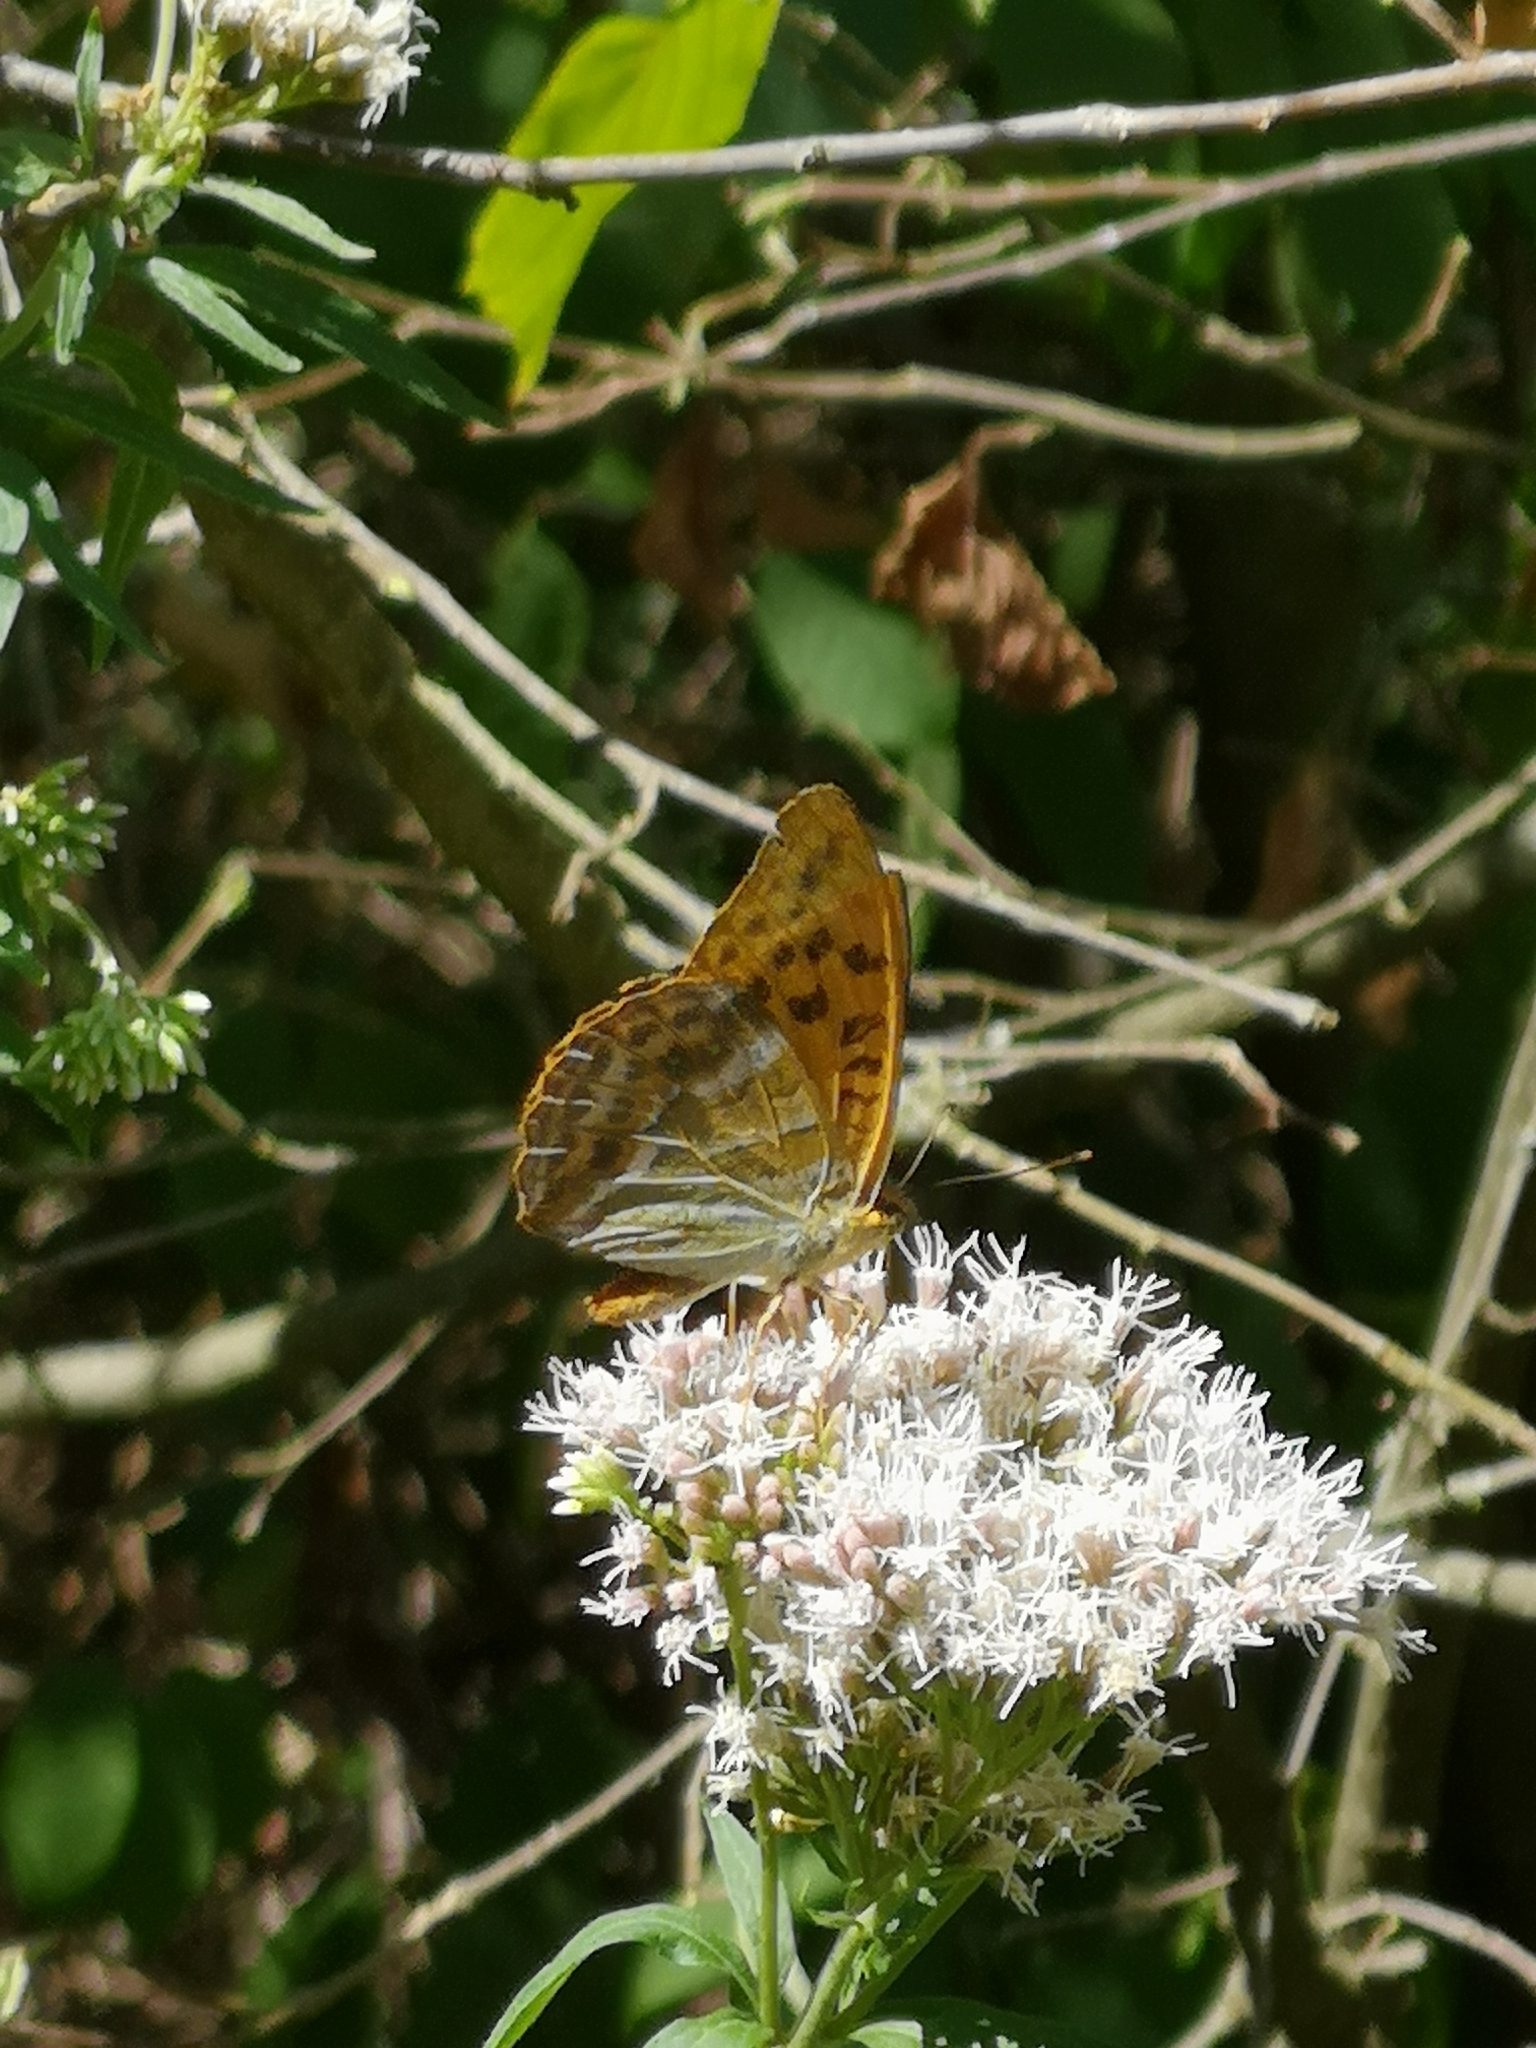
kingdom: Animalia
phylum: Arthropoda
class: Insecta
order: Lepidoptera
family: Nymphalidae
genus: Argynnis
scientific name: Argynnis paphia
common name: Silver-washed fritillary
